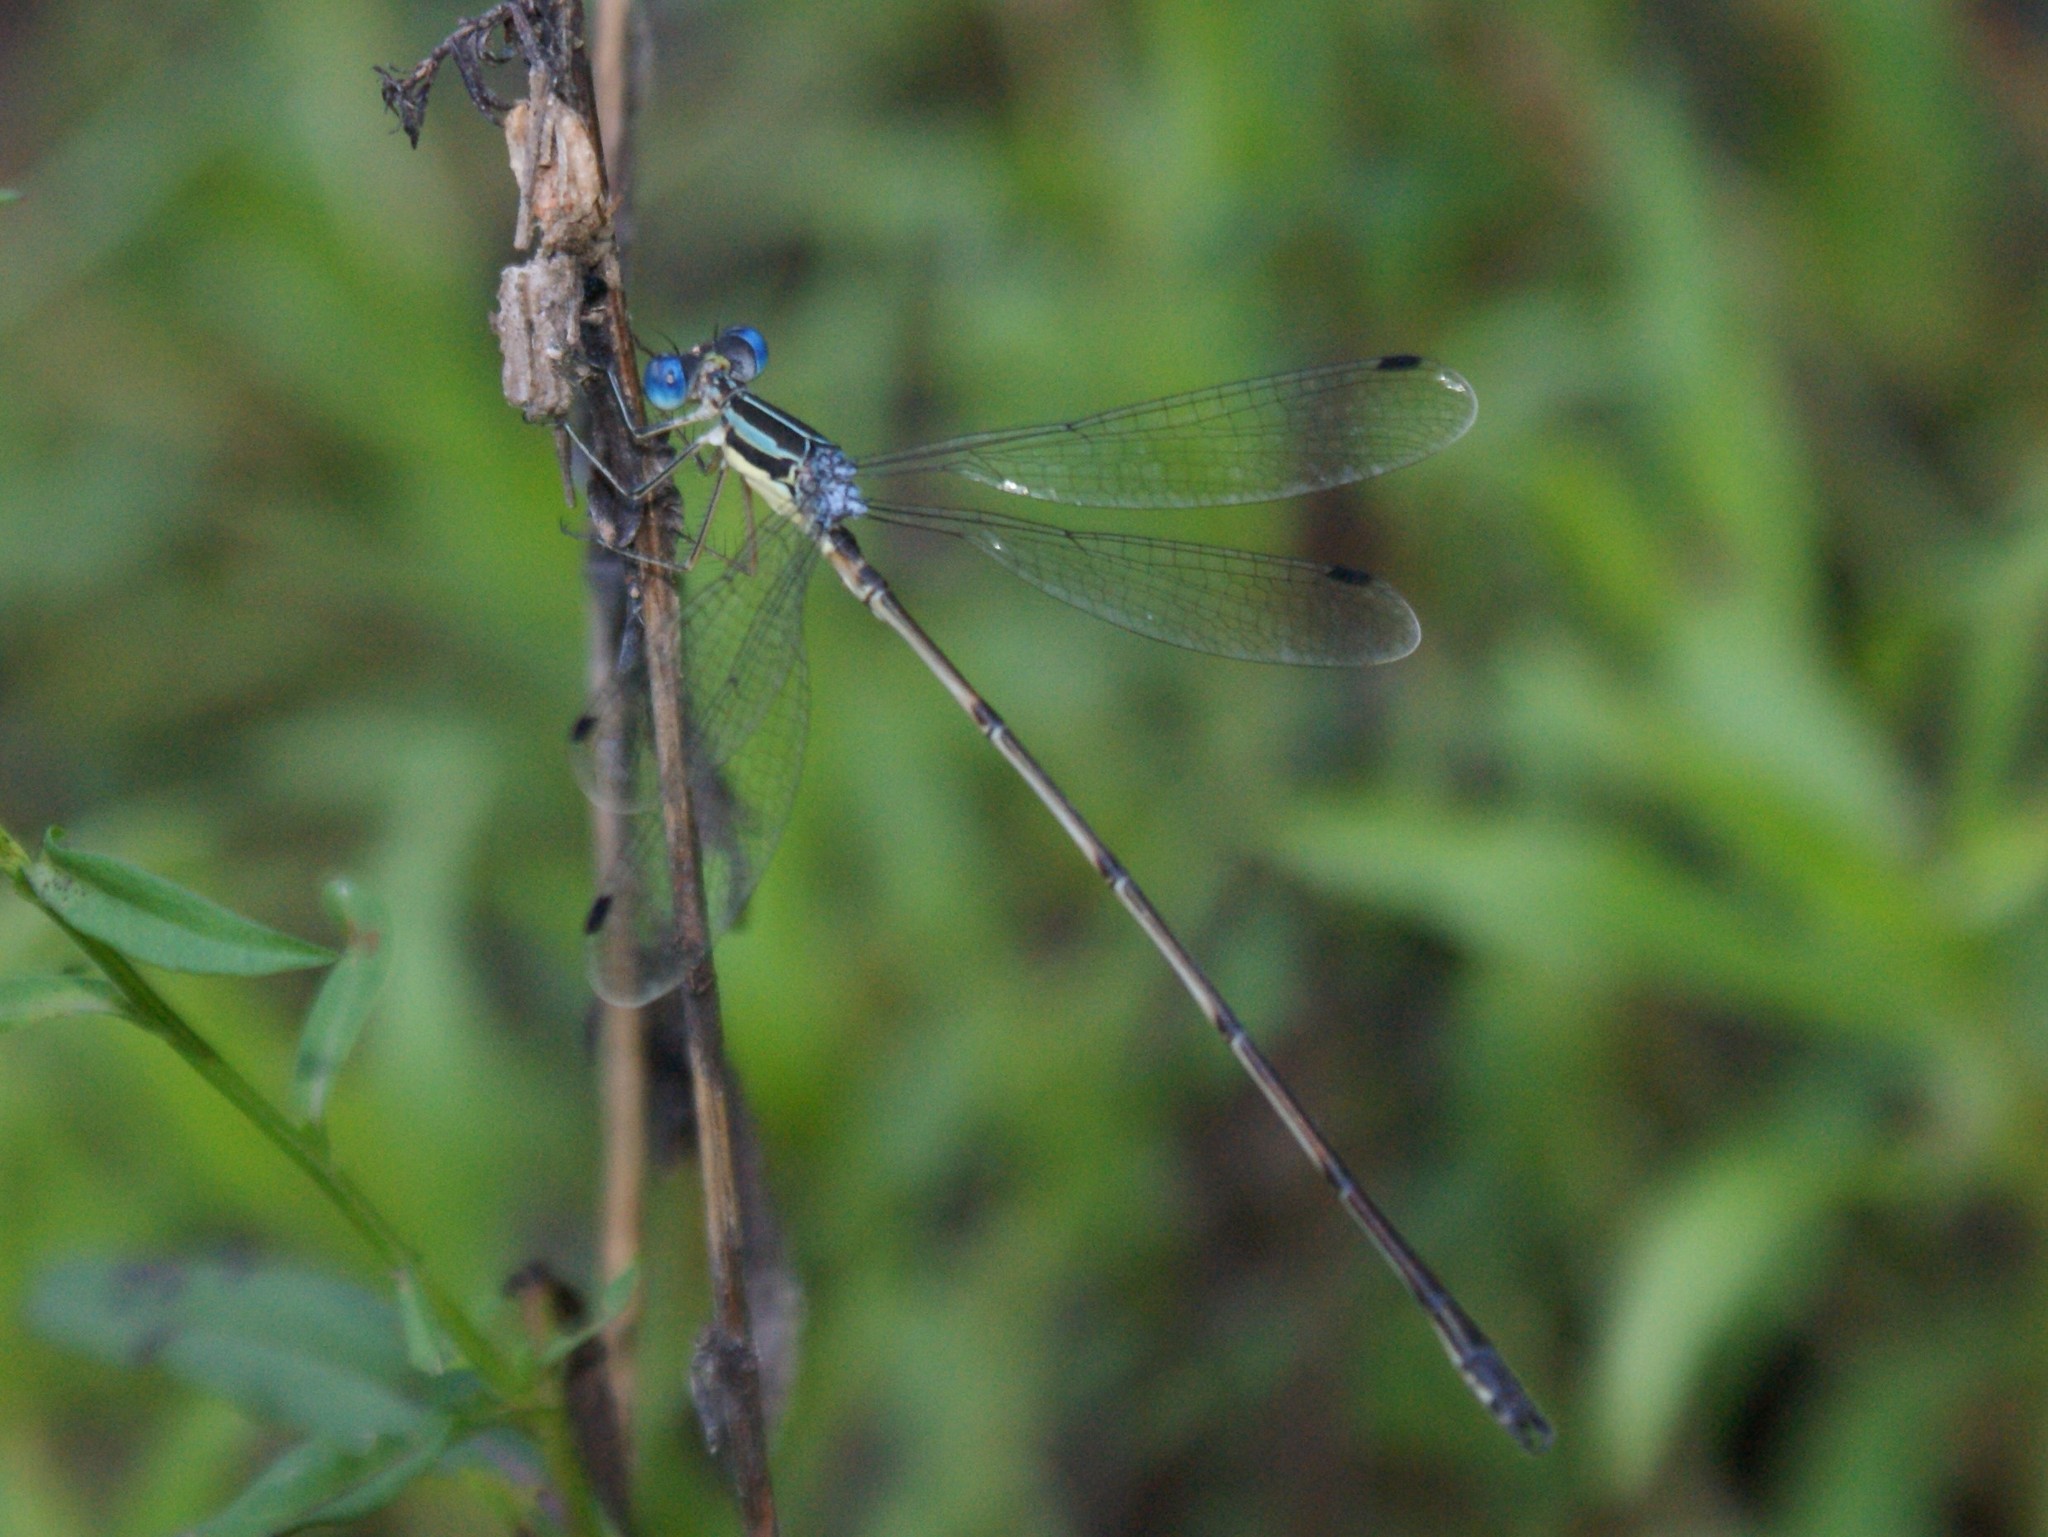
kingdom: Animalia
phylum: Arthropoda
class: Insecta
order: Odonata
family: Lestidae
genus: Lestes
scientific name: Lestes rectangularis
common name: Slender spreadwing
